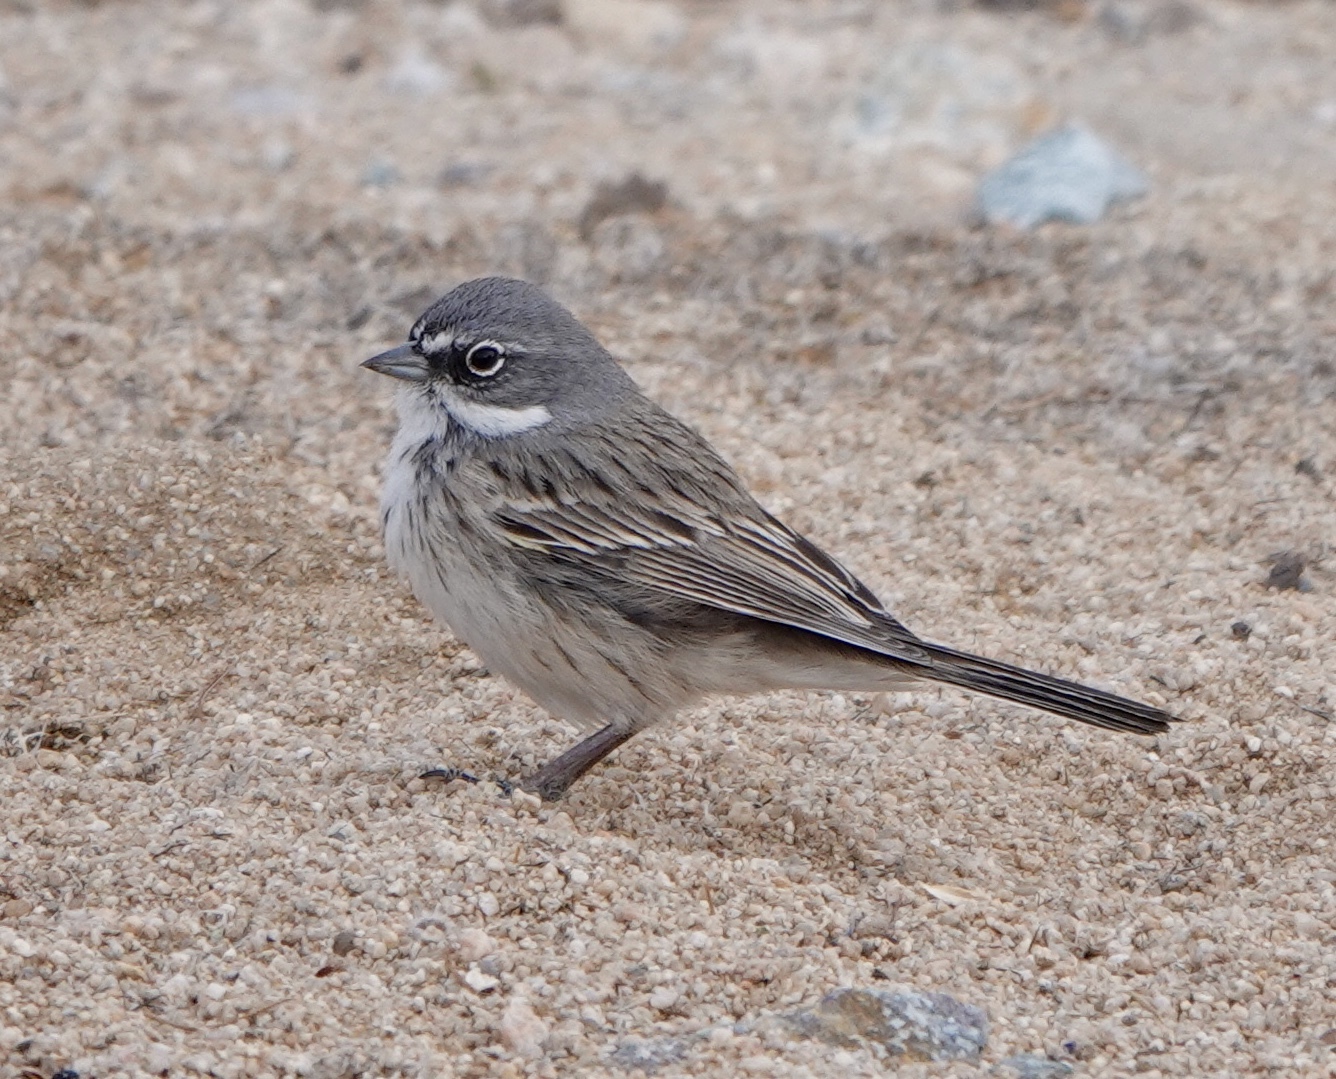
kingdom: Animalia
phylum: Chordata
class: Aves
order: Passeriformes
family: Passerellidae
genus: Artemisiospiza
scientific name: Artemisiospiza nevadensis
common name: Sagebrush sparrow
